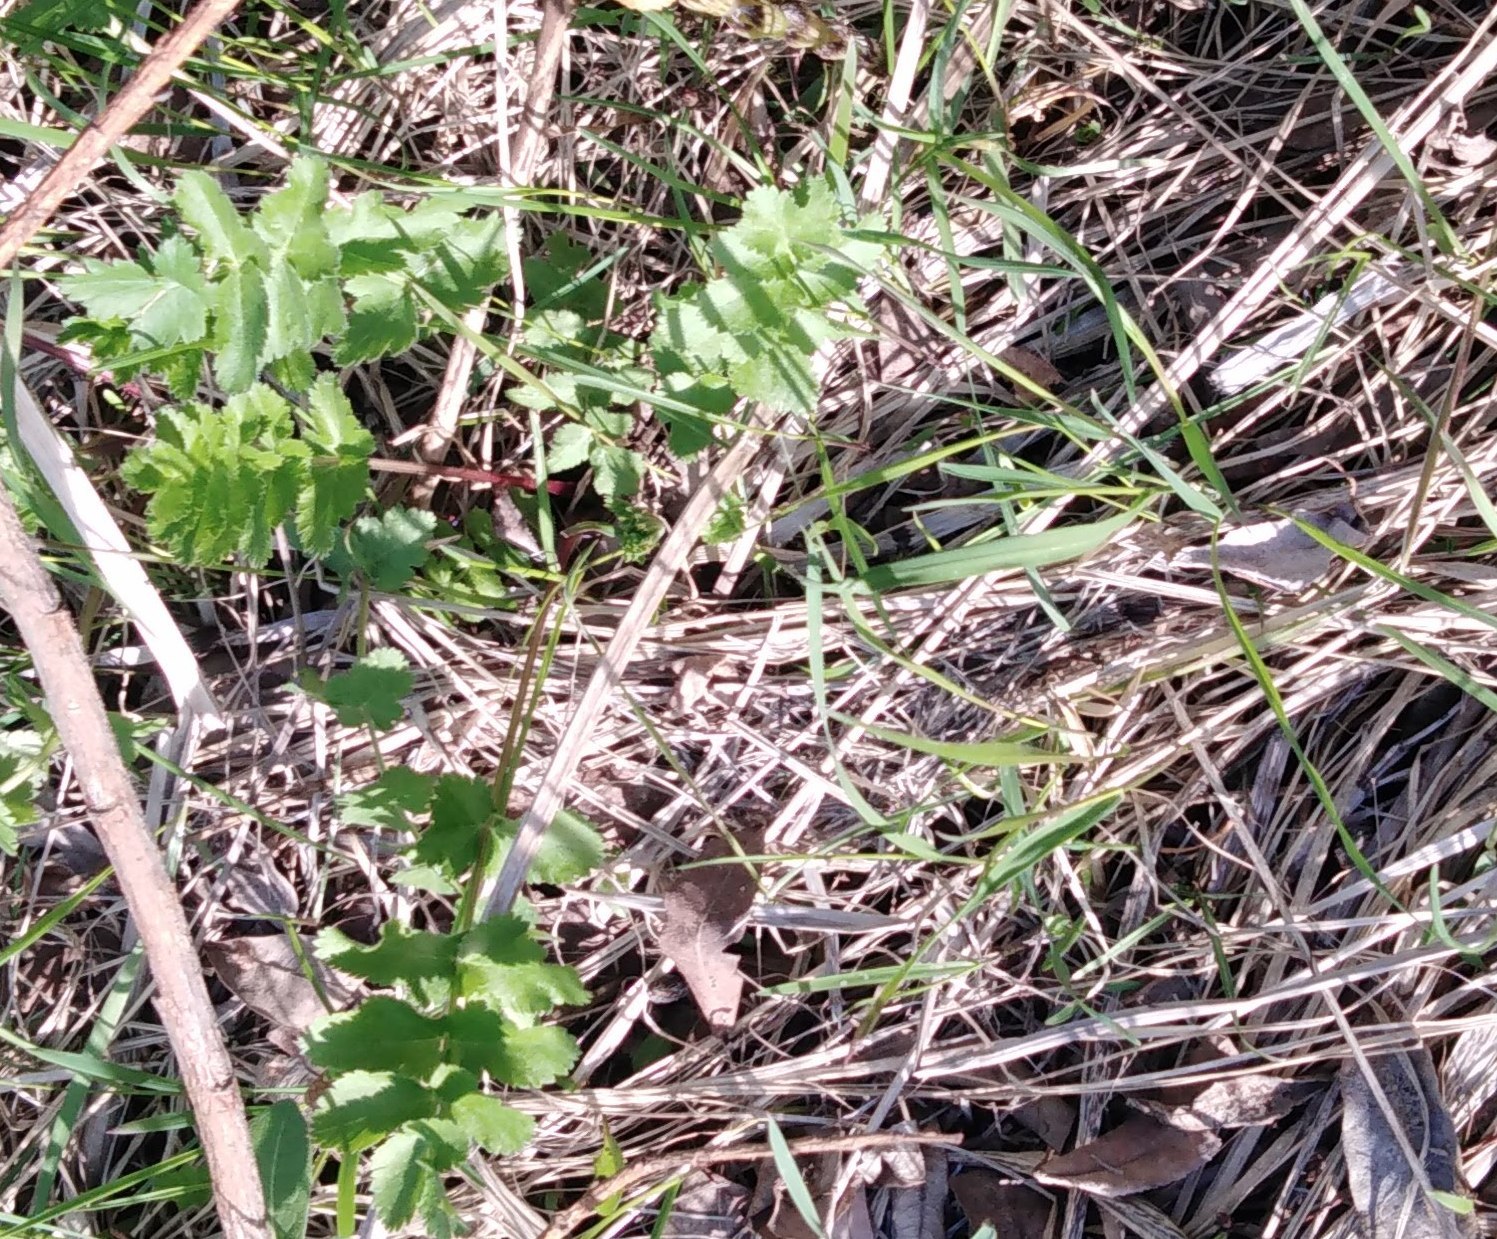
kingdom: Plantae
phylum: Tracheophyta
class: Magnoliopsida
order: Apiales
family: Apiaceae
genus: Pastinaca
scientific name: Pastinaca sativa
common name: Wild parsnip
